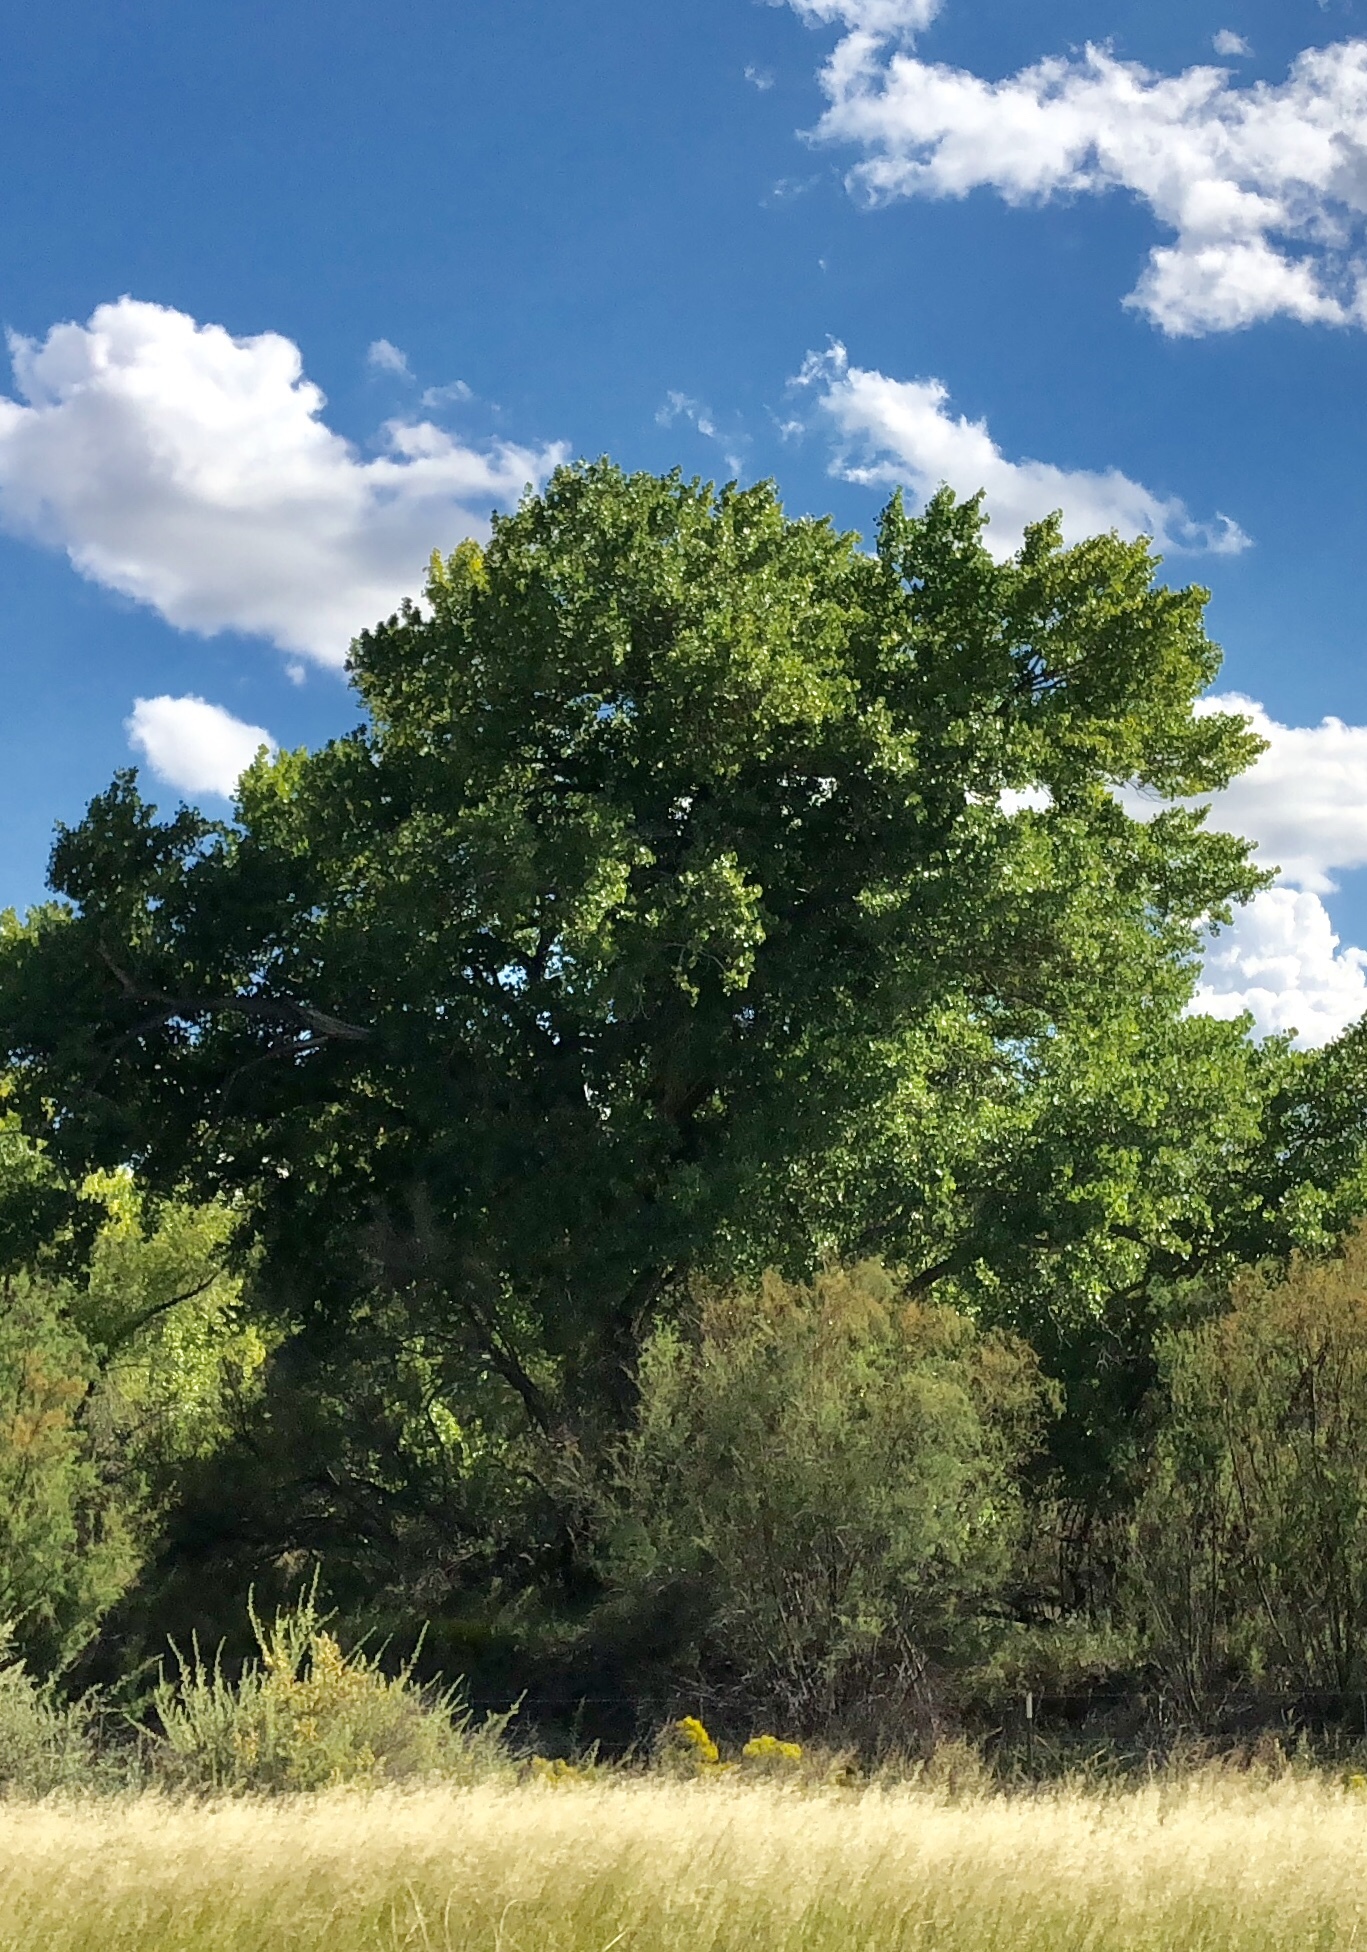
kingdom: Plantae
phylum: Tracheophyta
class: Magnoliopsida
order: Malpighiales
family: Salicaceae
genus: Populus
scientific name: Populus fremontii
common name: Fremont's cottonwood
